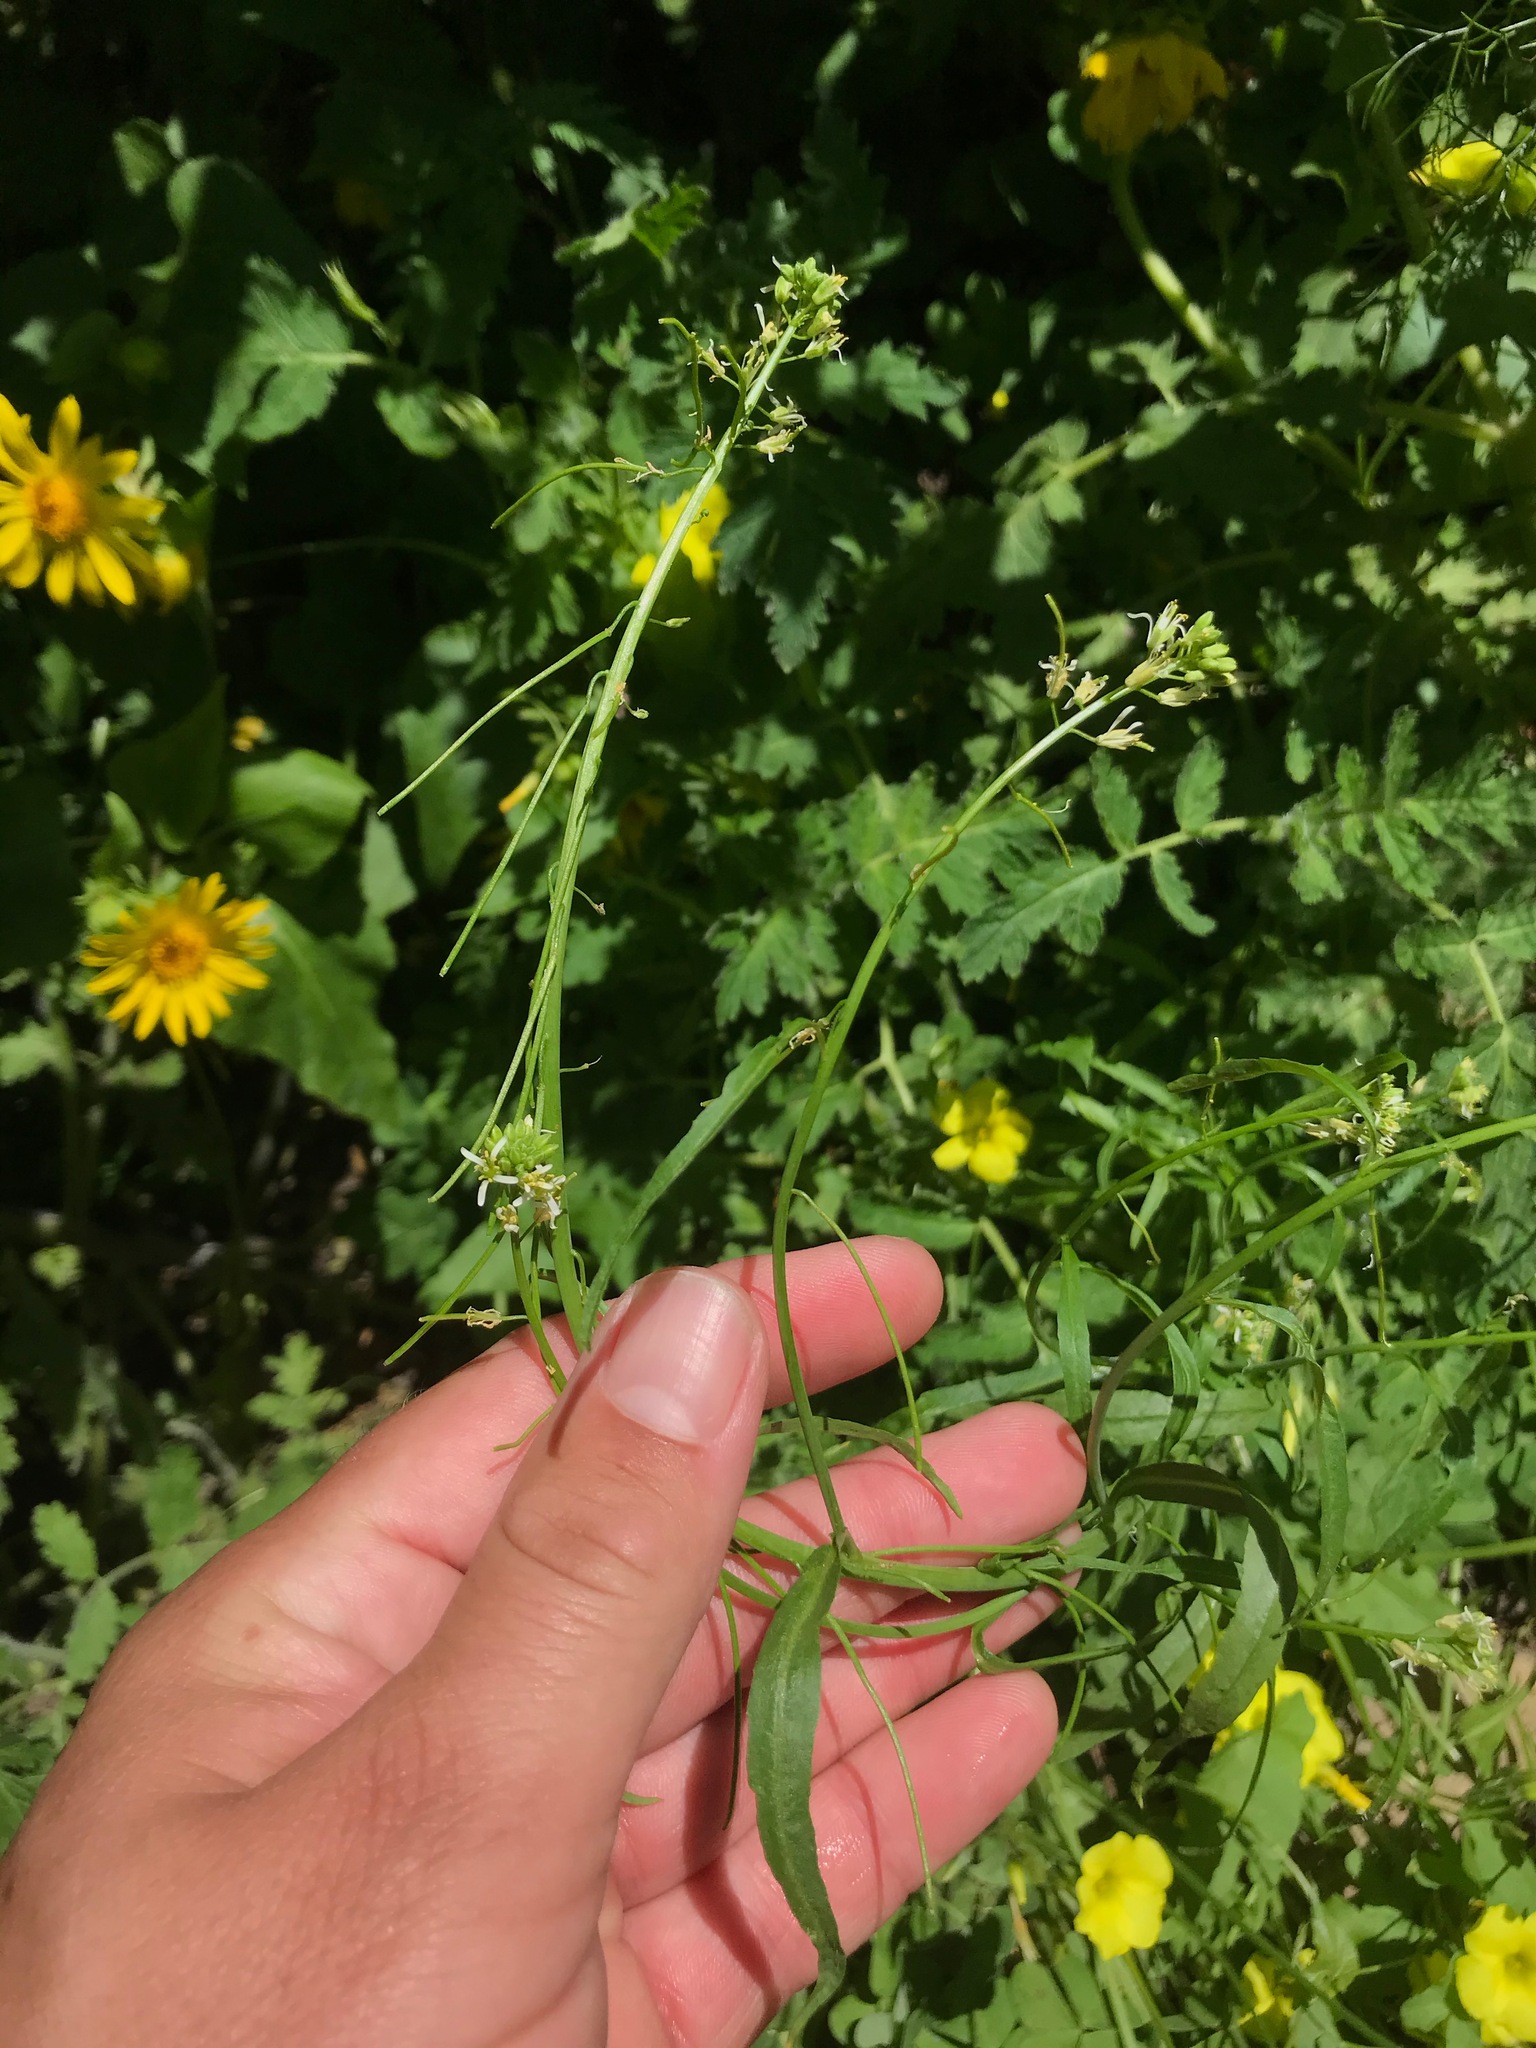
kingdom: Plantae
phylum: Tracheophyta
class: Magnoliopsida
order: Brassicales
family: Brassicaceae
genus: Streptanthus
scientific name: Streptanthus lasiophyllus
